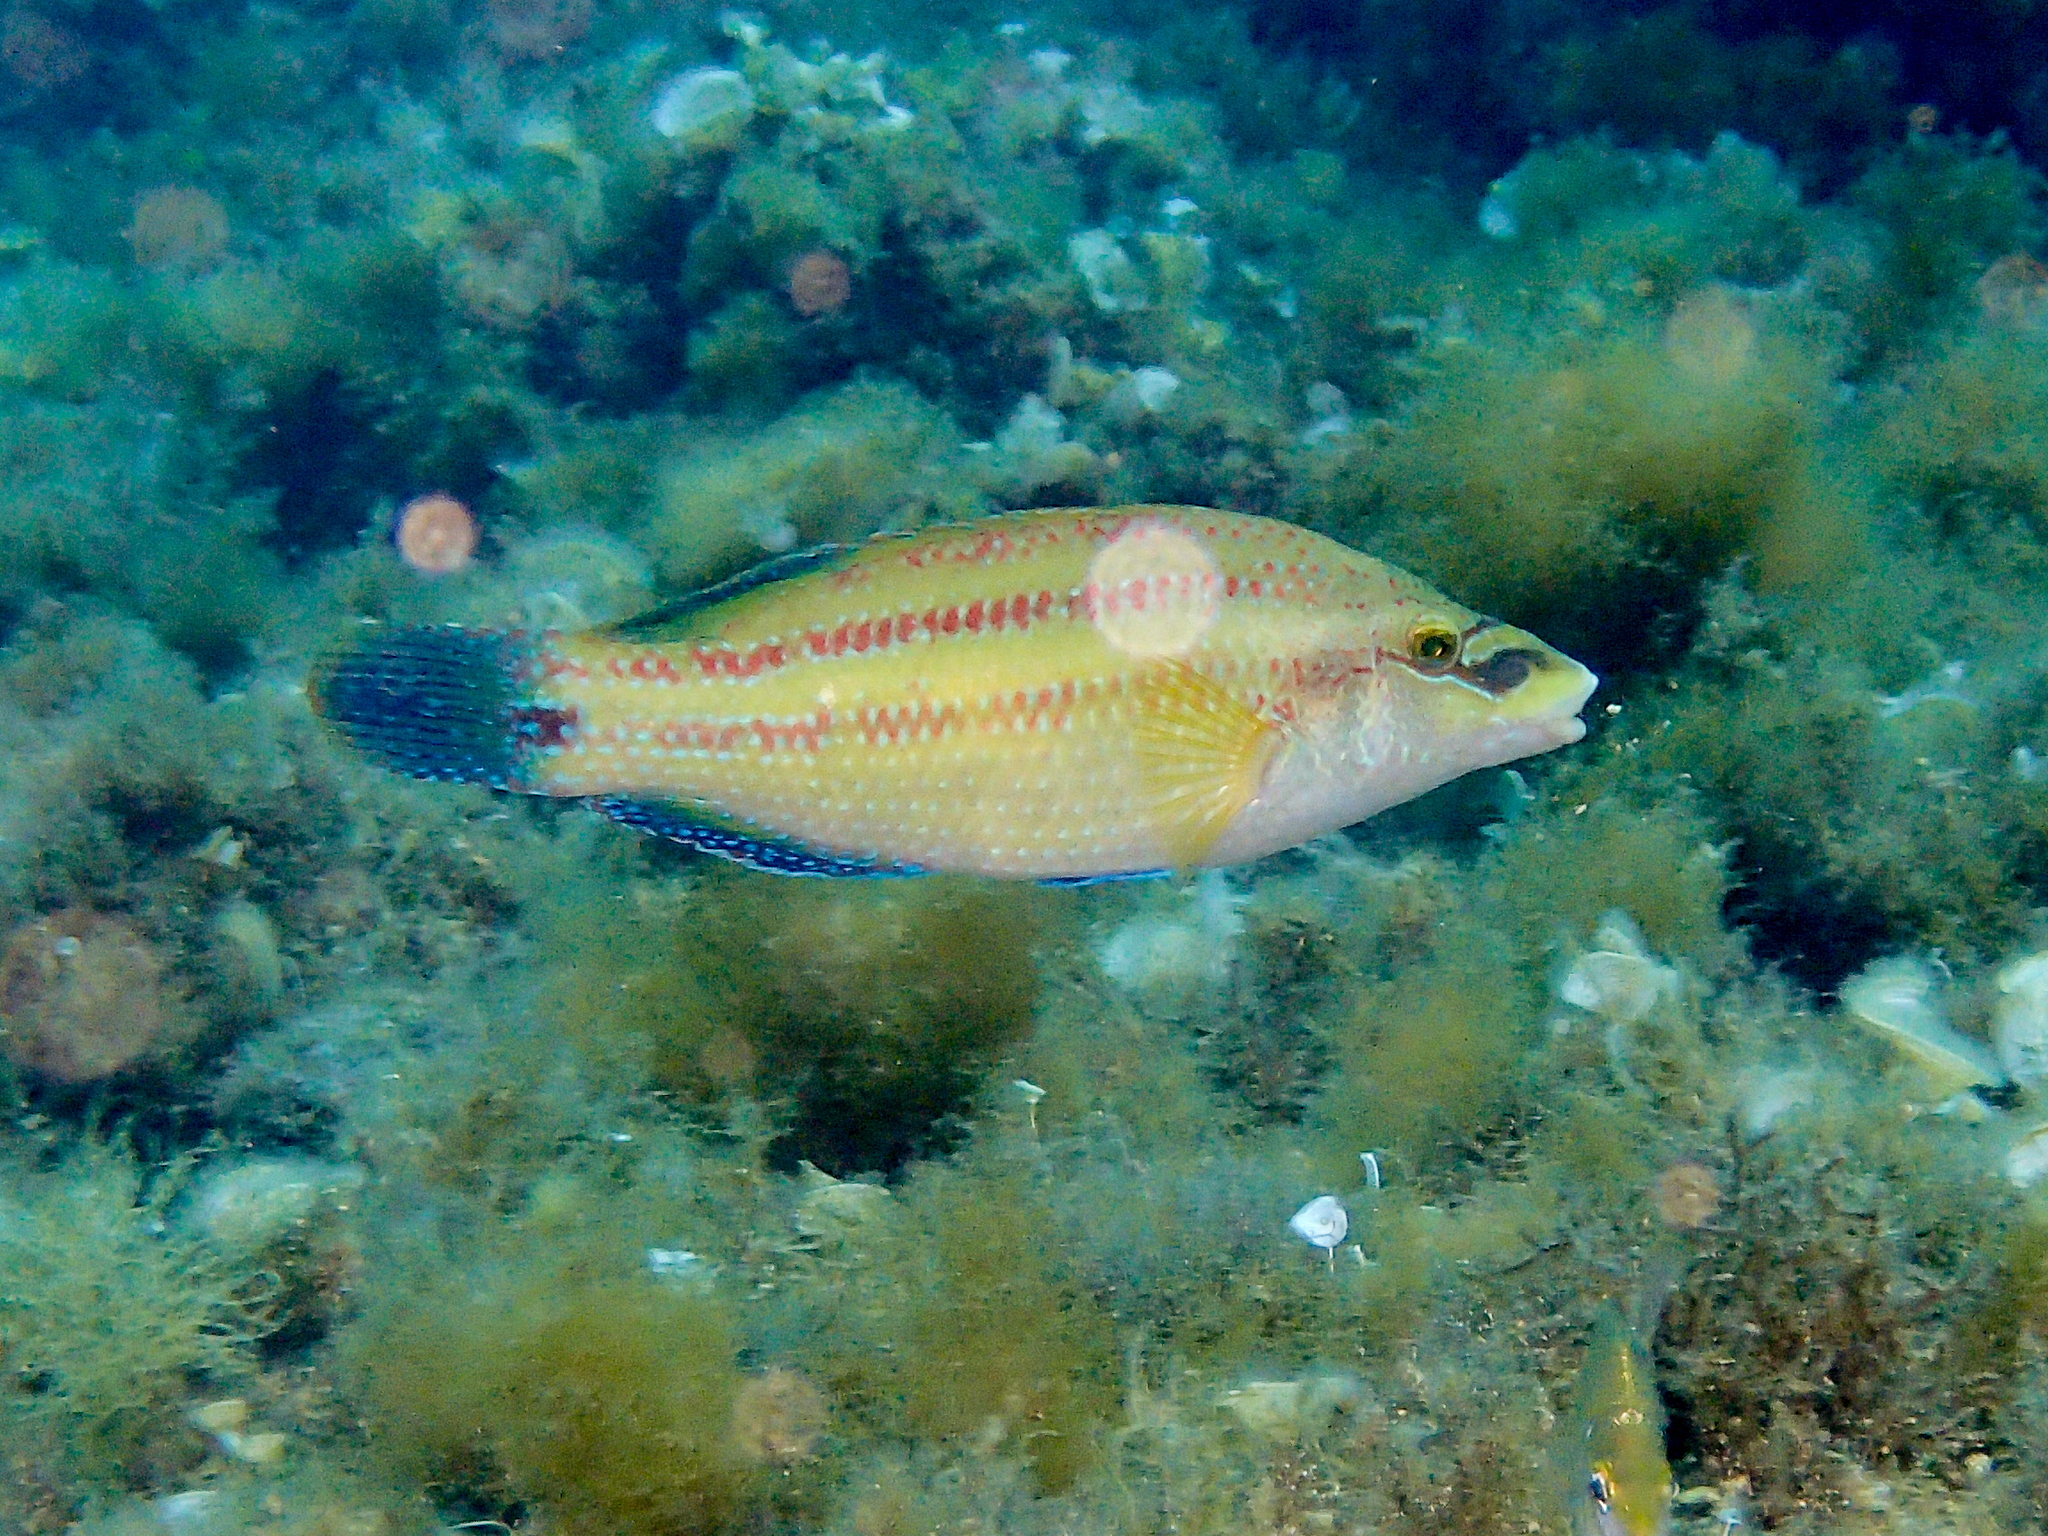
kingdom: Animalia
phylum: Chordata
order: Perciformes
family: Labridae
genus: Symphodus
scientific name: Symphodus tinca
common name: Peacock wrasse
